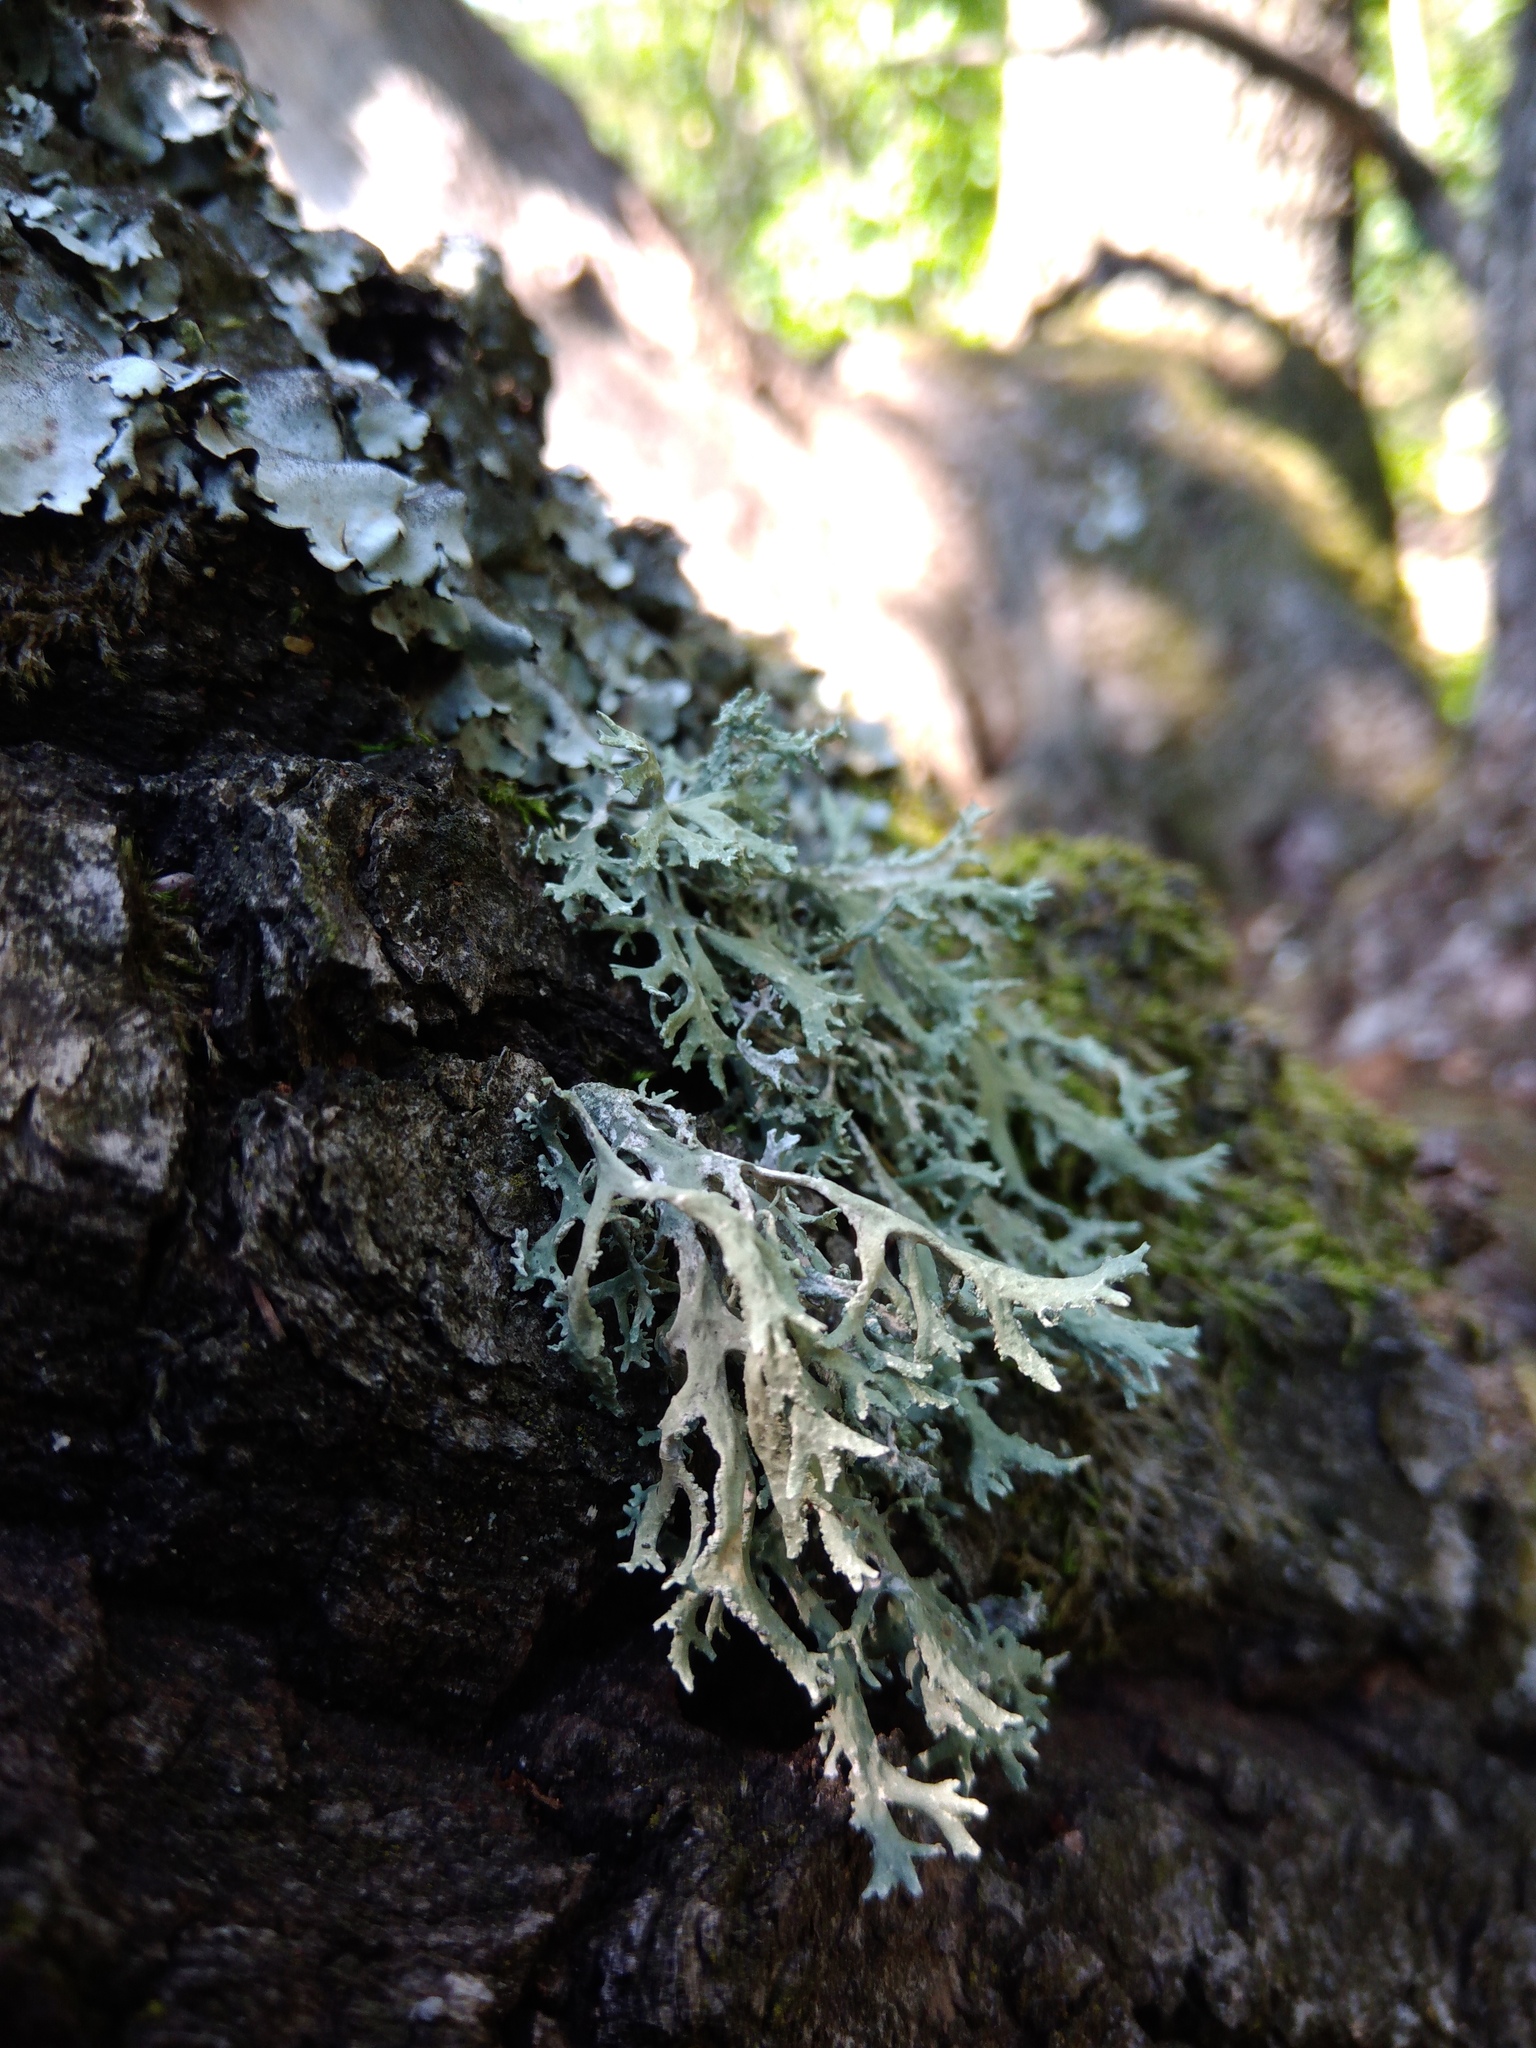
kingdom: Fungi
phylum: Ascomycota
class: Lecanoromycetes
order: Lecanorales
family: Parmeliaceae
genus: Evernia
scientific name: Evernia prunastri
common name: Oak moss
